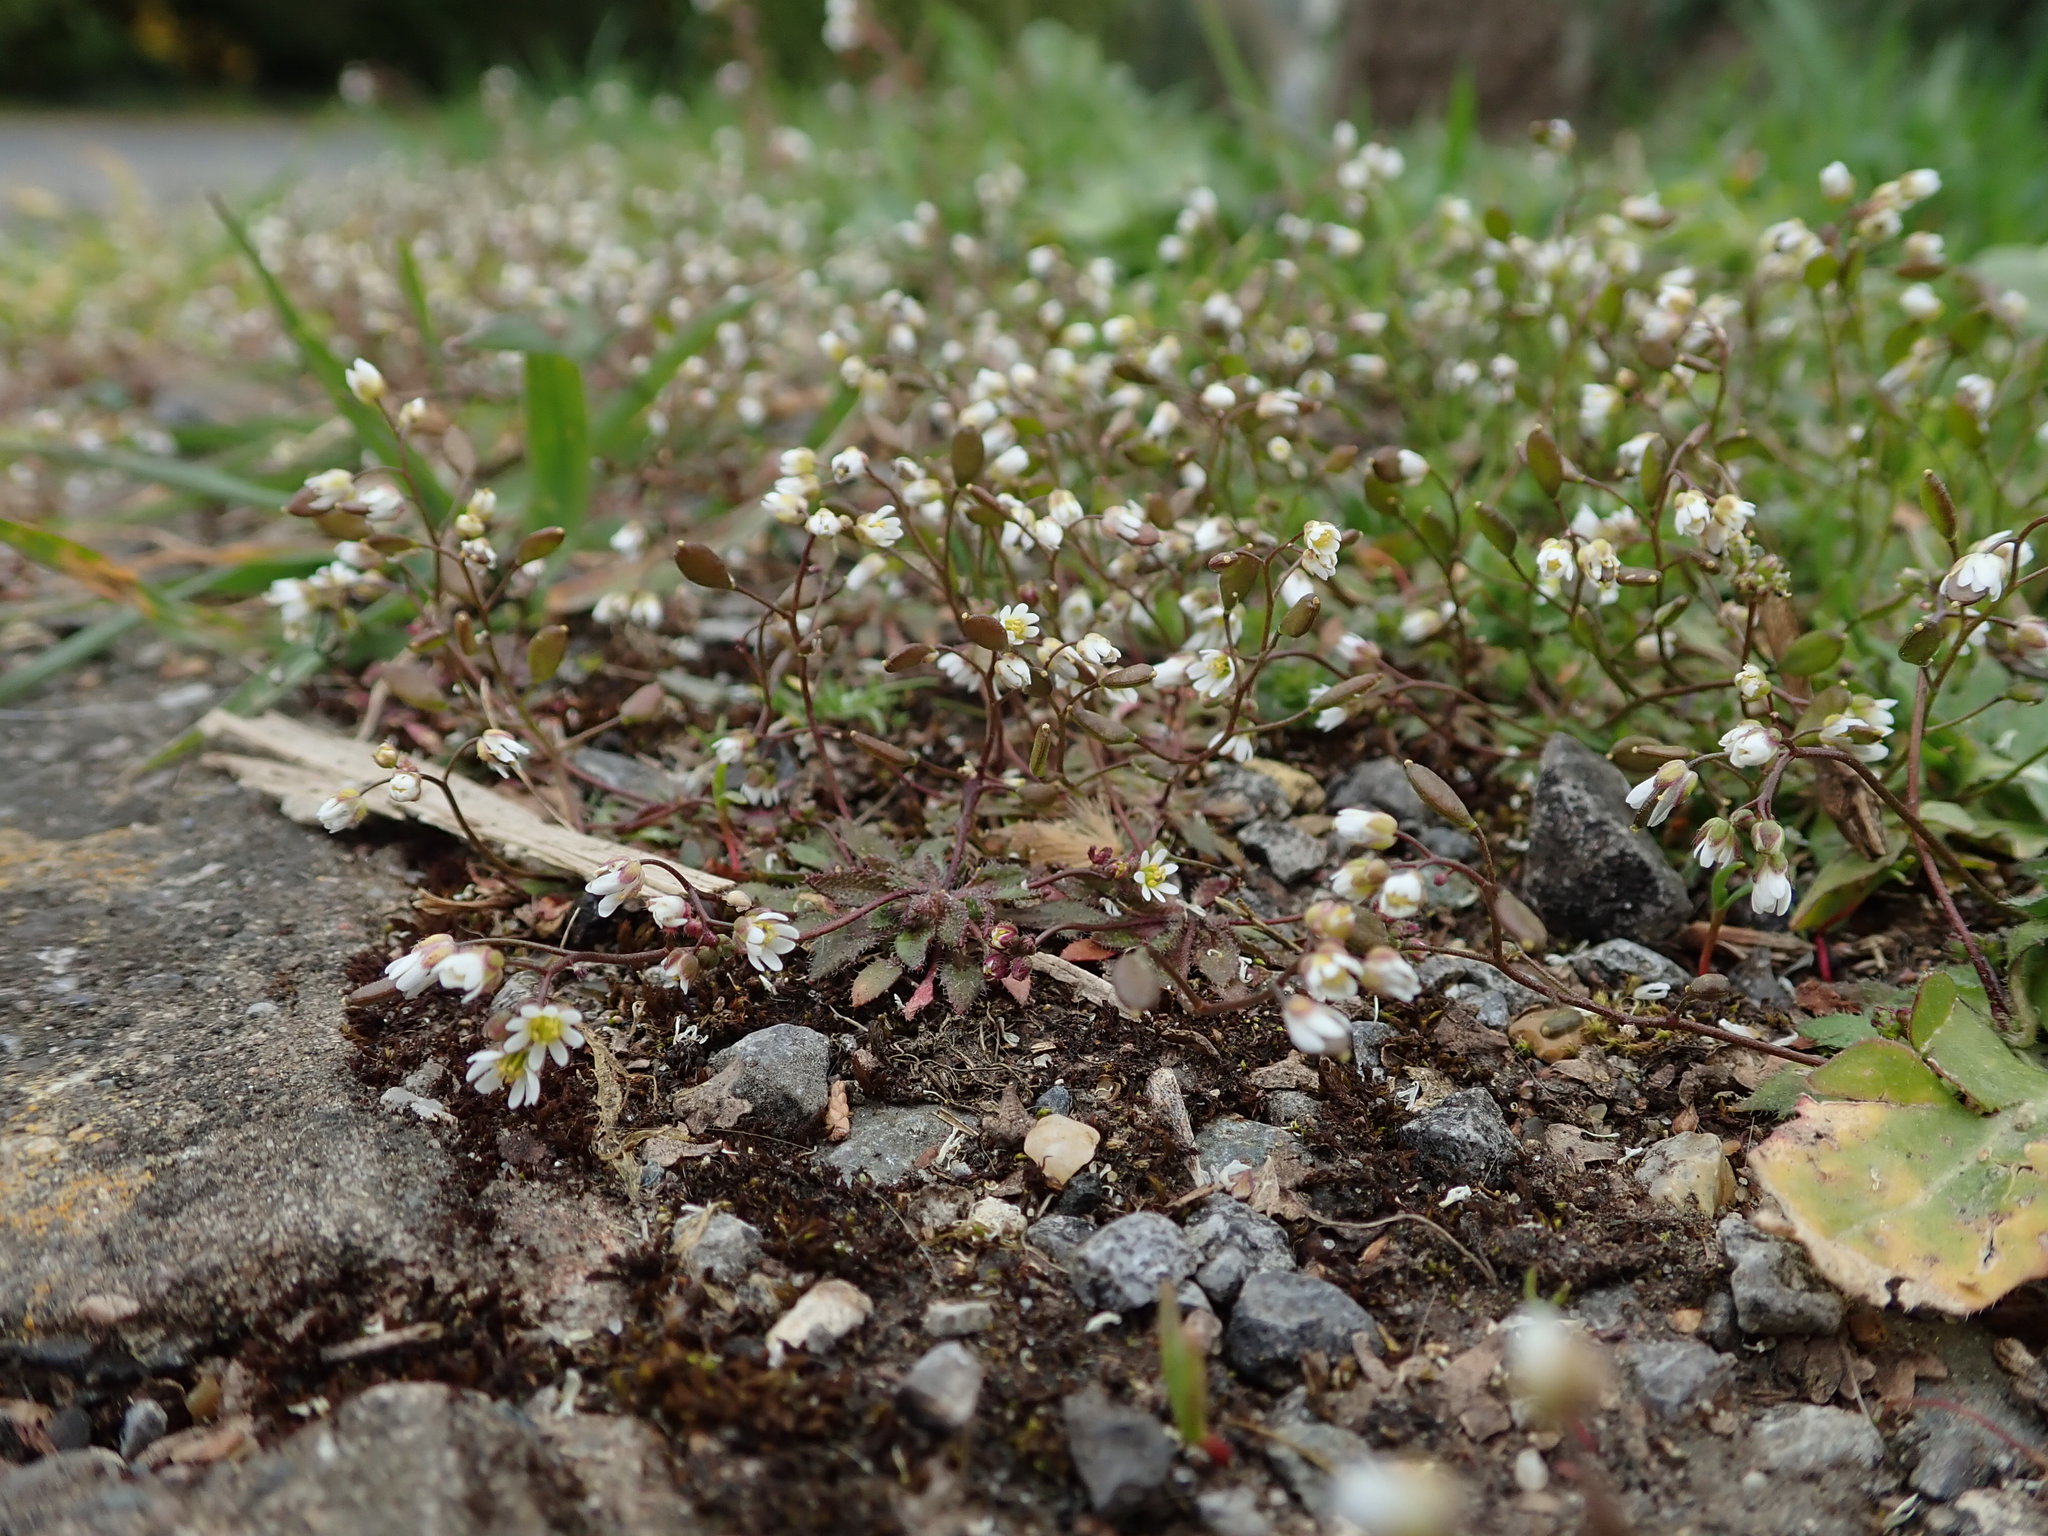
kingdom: Plantae
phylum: Tracheophyta
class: Magnoliopsida
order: Brassicales
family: Brassicaceae
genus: Draba
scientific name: Draba verna
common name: Spring draba
